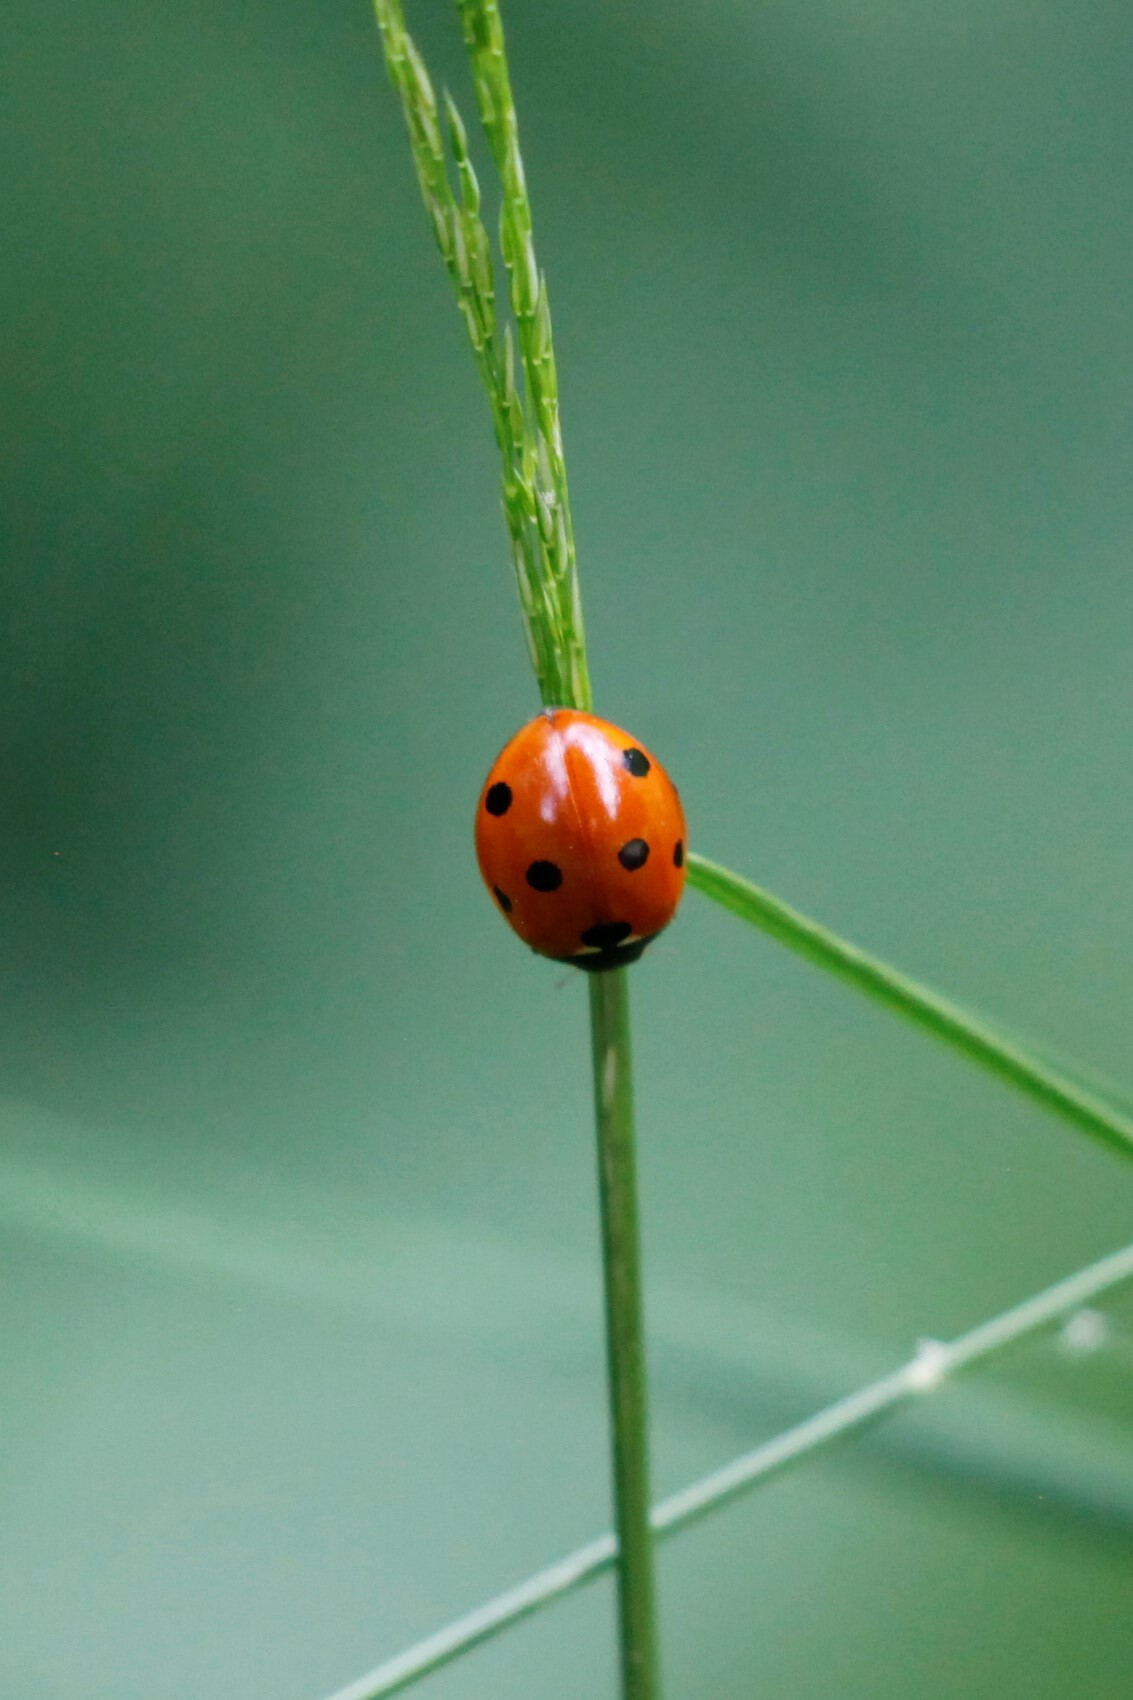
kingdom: Animalia
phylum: Arthropoda
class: Insecta
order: Coleoptera
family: Coccinellidae
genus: Coccinella
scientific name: Coccinella septempunctata
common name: Sevenspotted lady beetle
